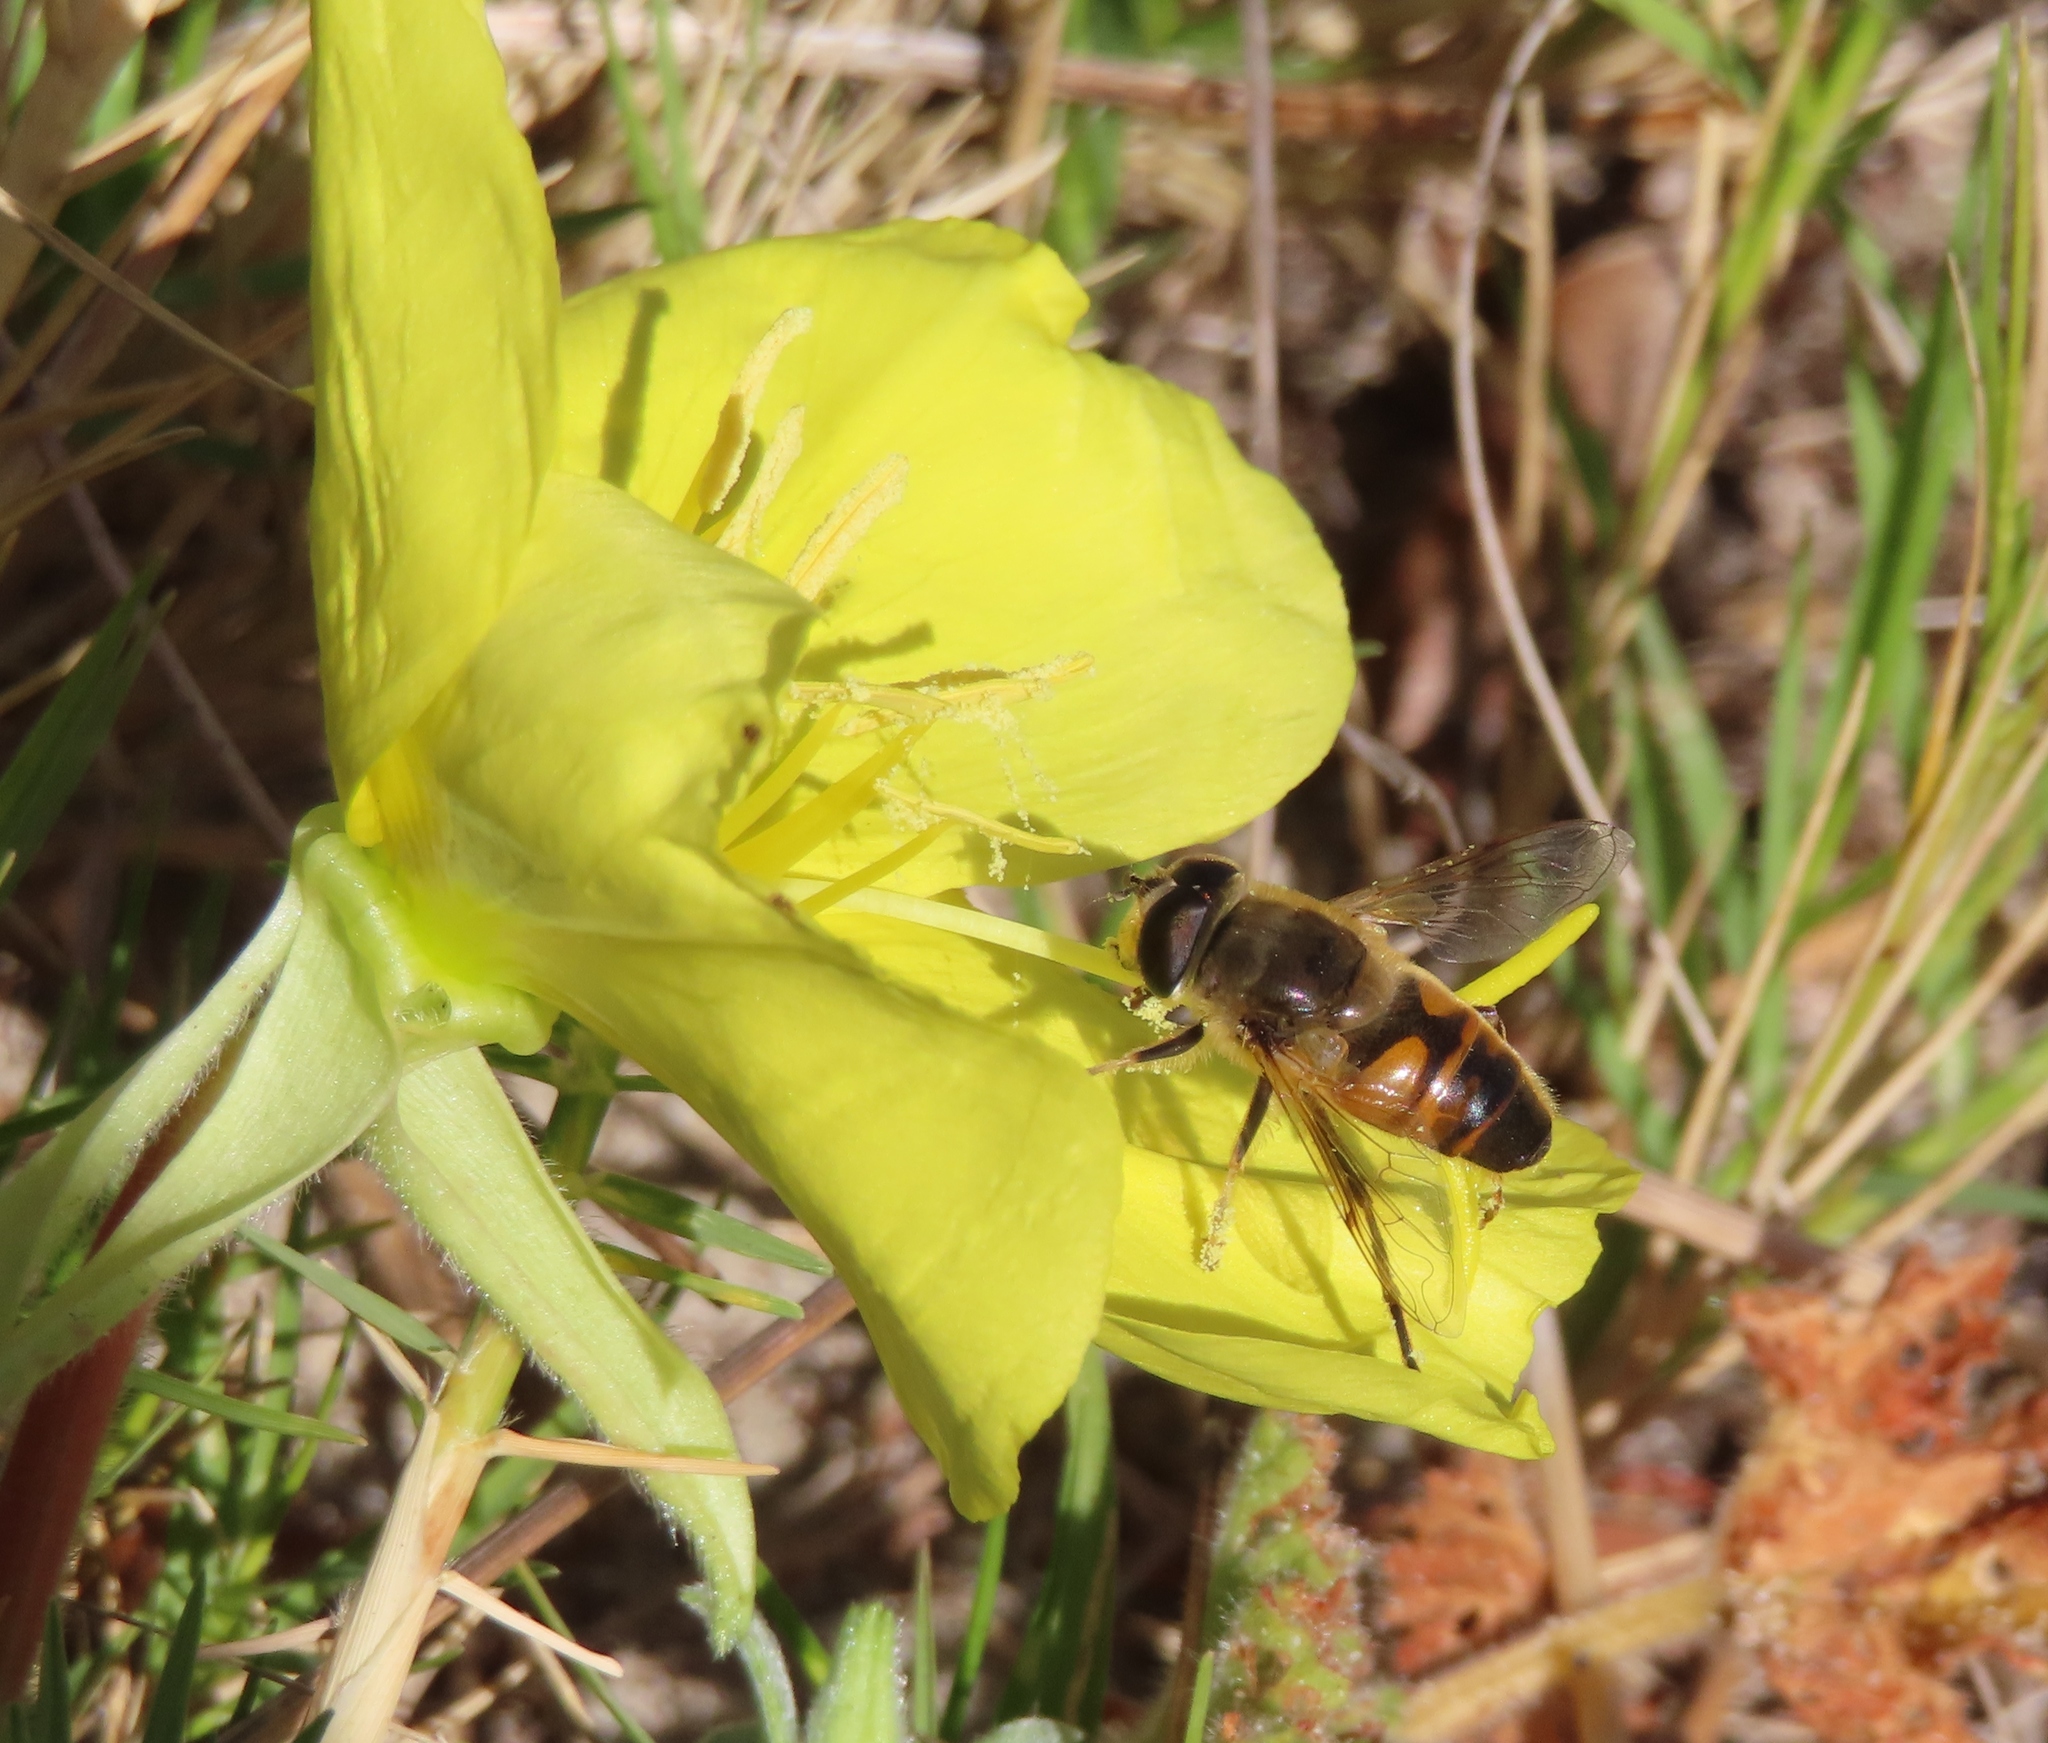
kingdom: Animalia
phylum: Arthropoda
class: Insecta
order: Diptera
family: Syrphidae
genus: Eristalis
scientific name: Eristalis tenax
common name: Drone fly
